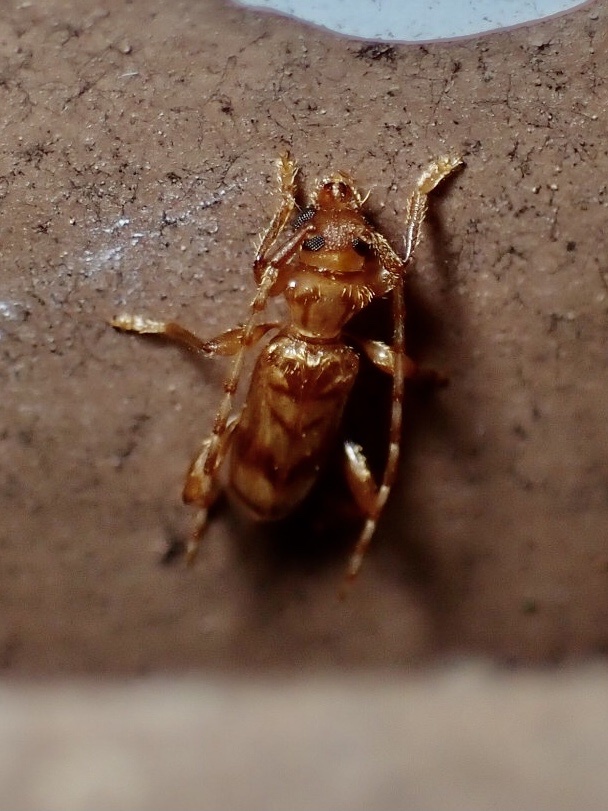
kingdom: Animalia
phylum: Arthropoda
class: Insecta
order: Coleoptera
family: Cerambycidae
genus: Obrium
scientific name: Obrium maculatum
